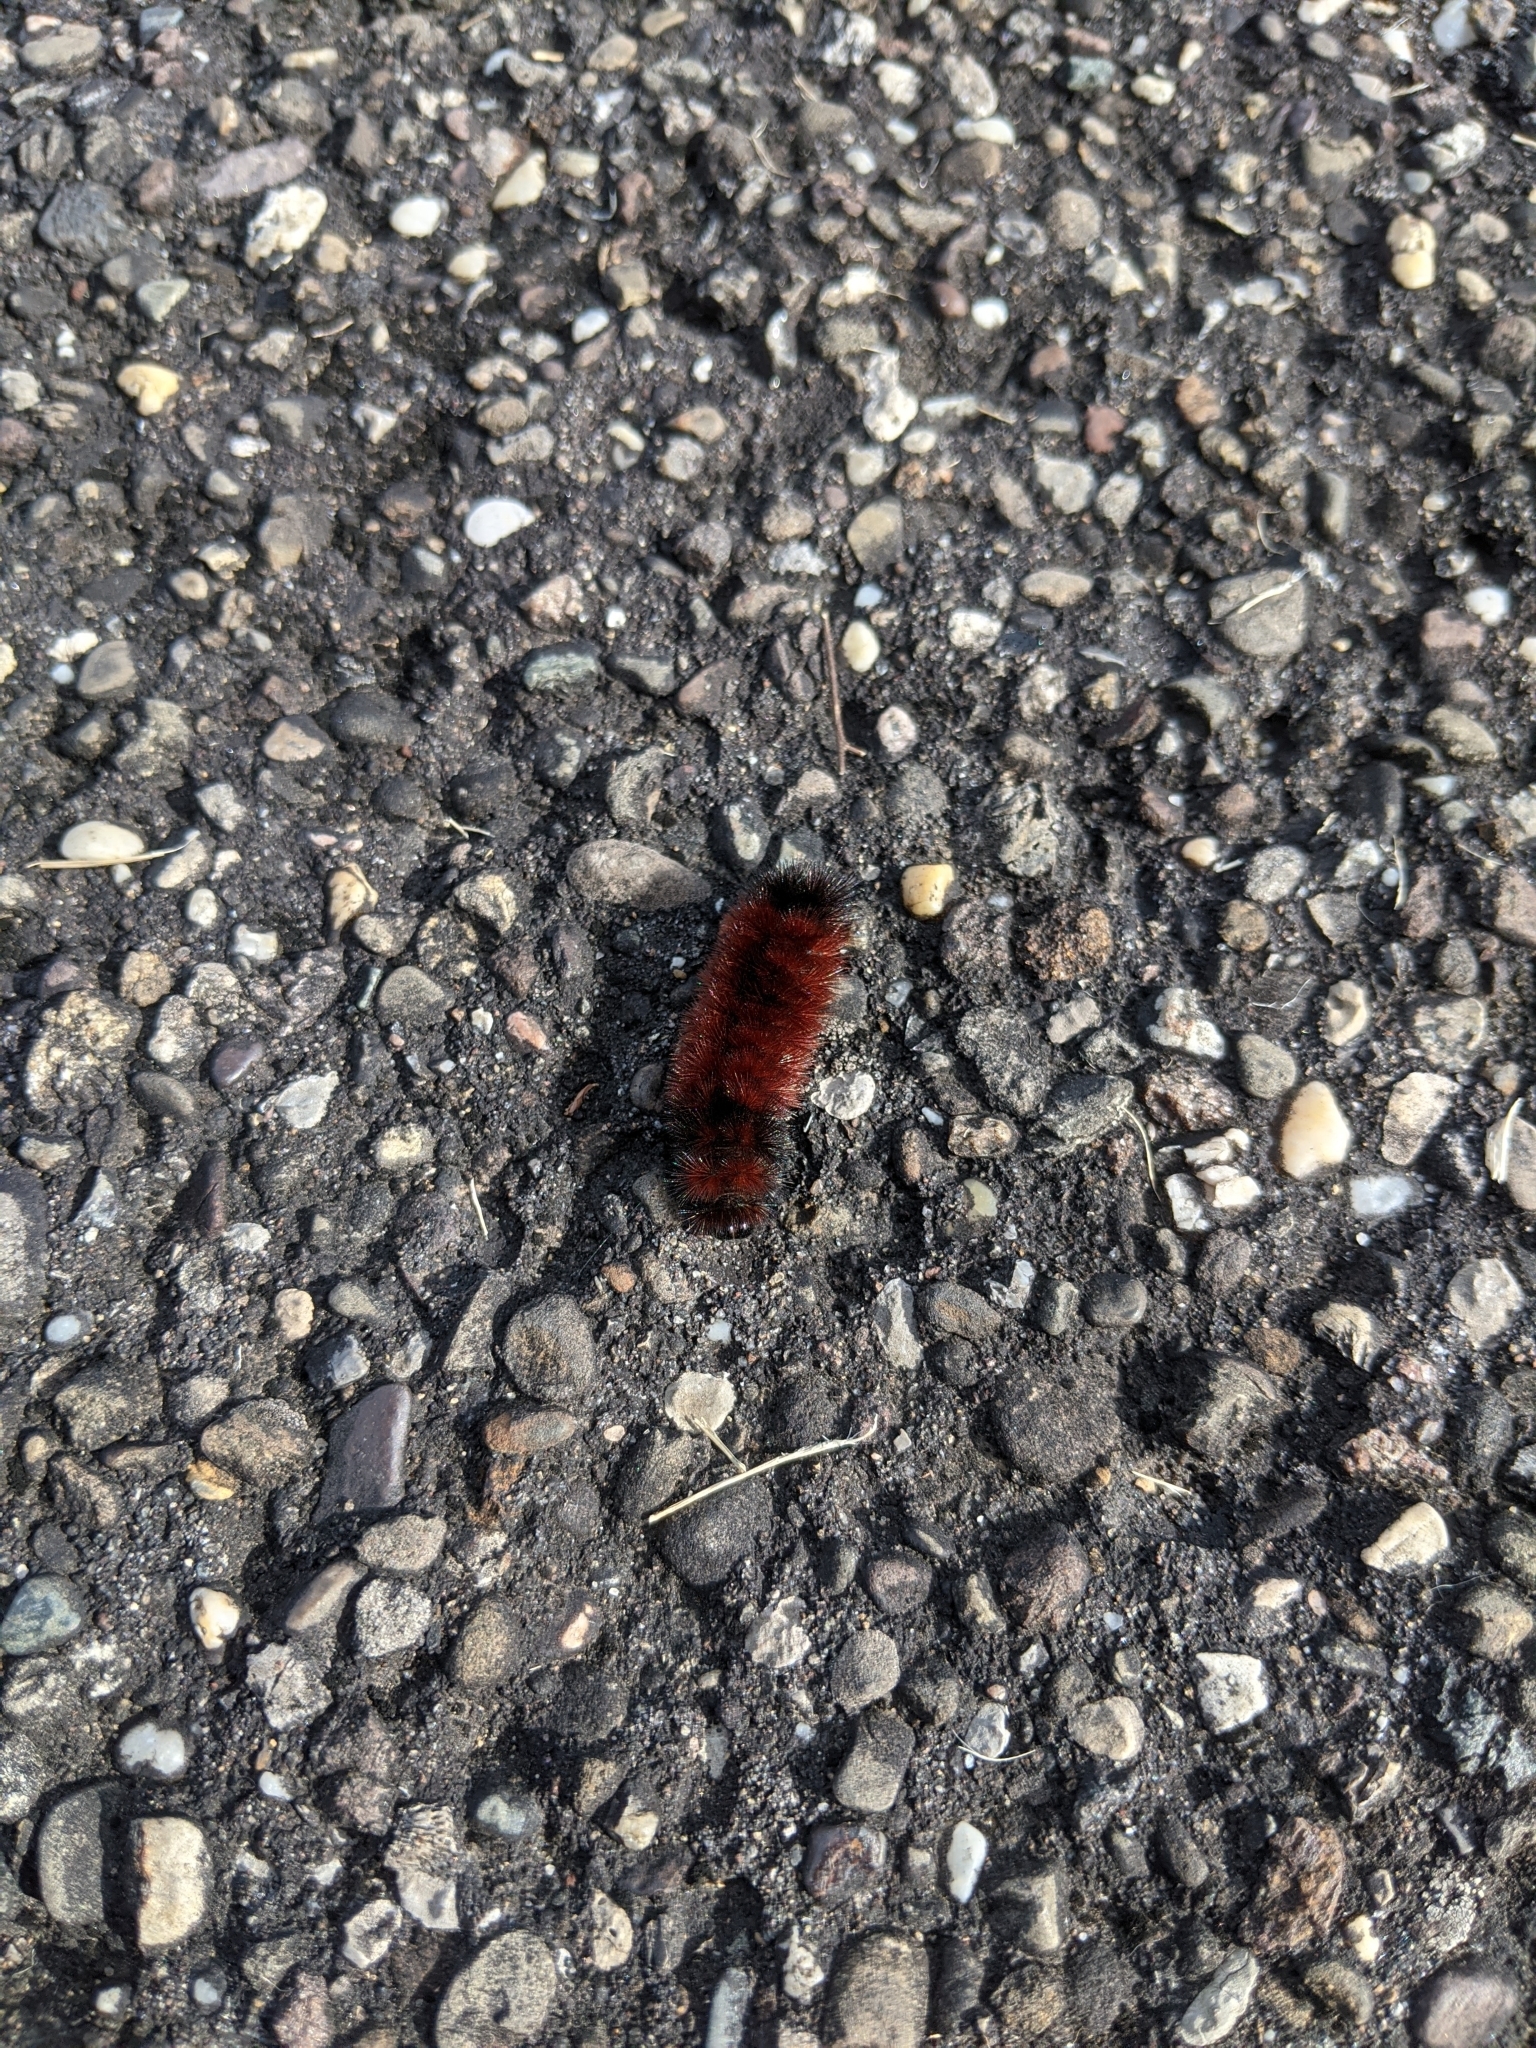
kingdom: Animalia
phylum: Arthropoda
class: Insecta
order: Lepidoptera
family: Erebidae
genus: Pyrrharctia
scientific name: Pyrrharctia isabella
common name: Isabella tiger moth
